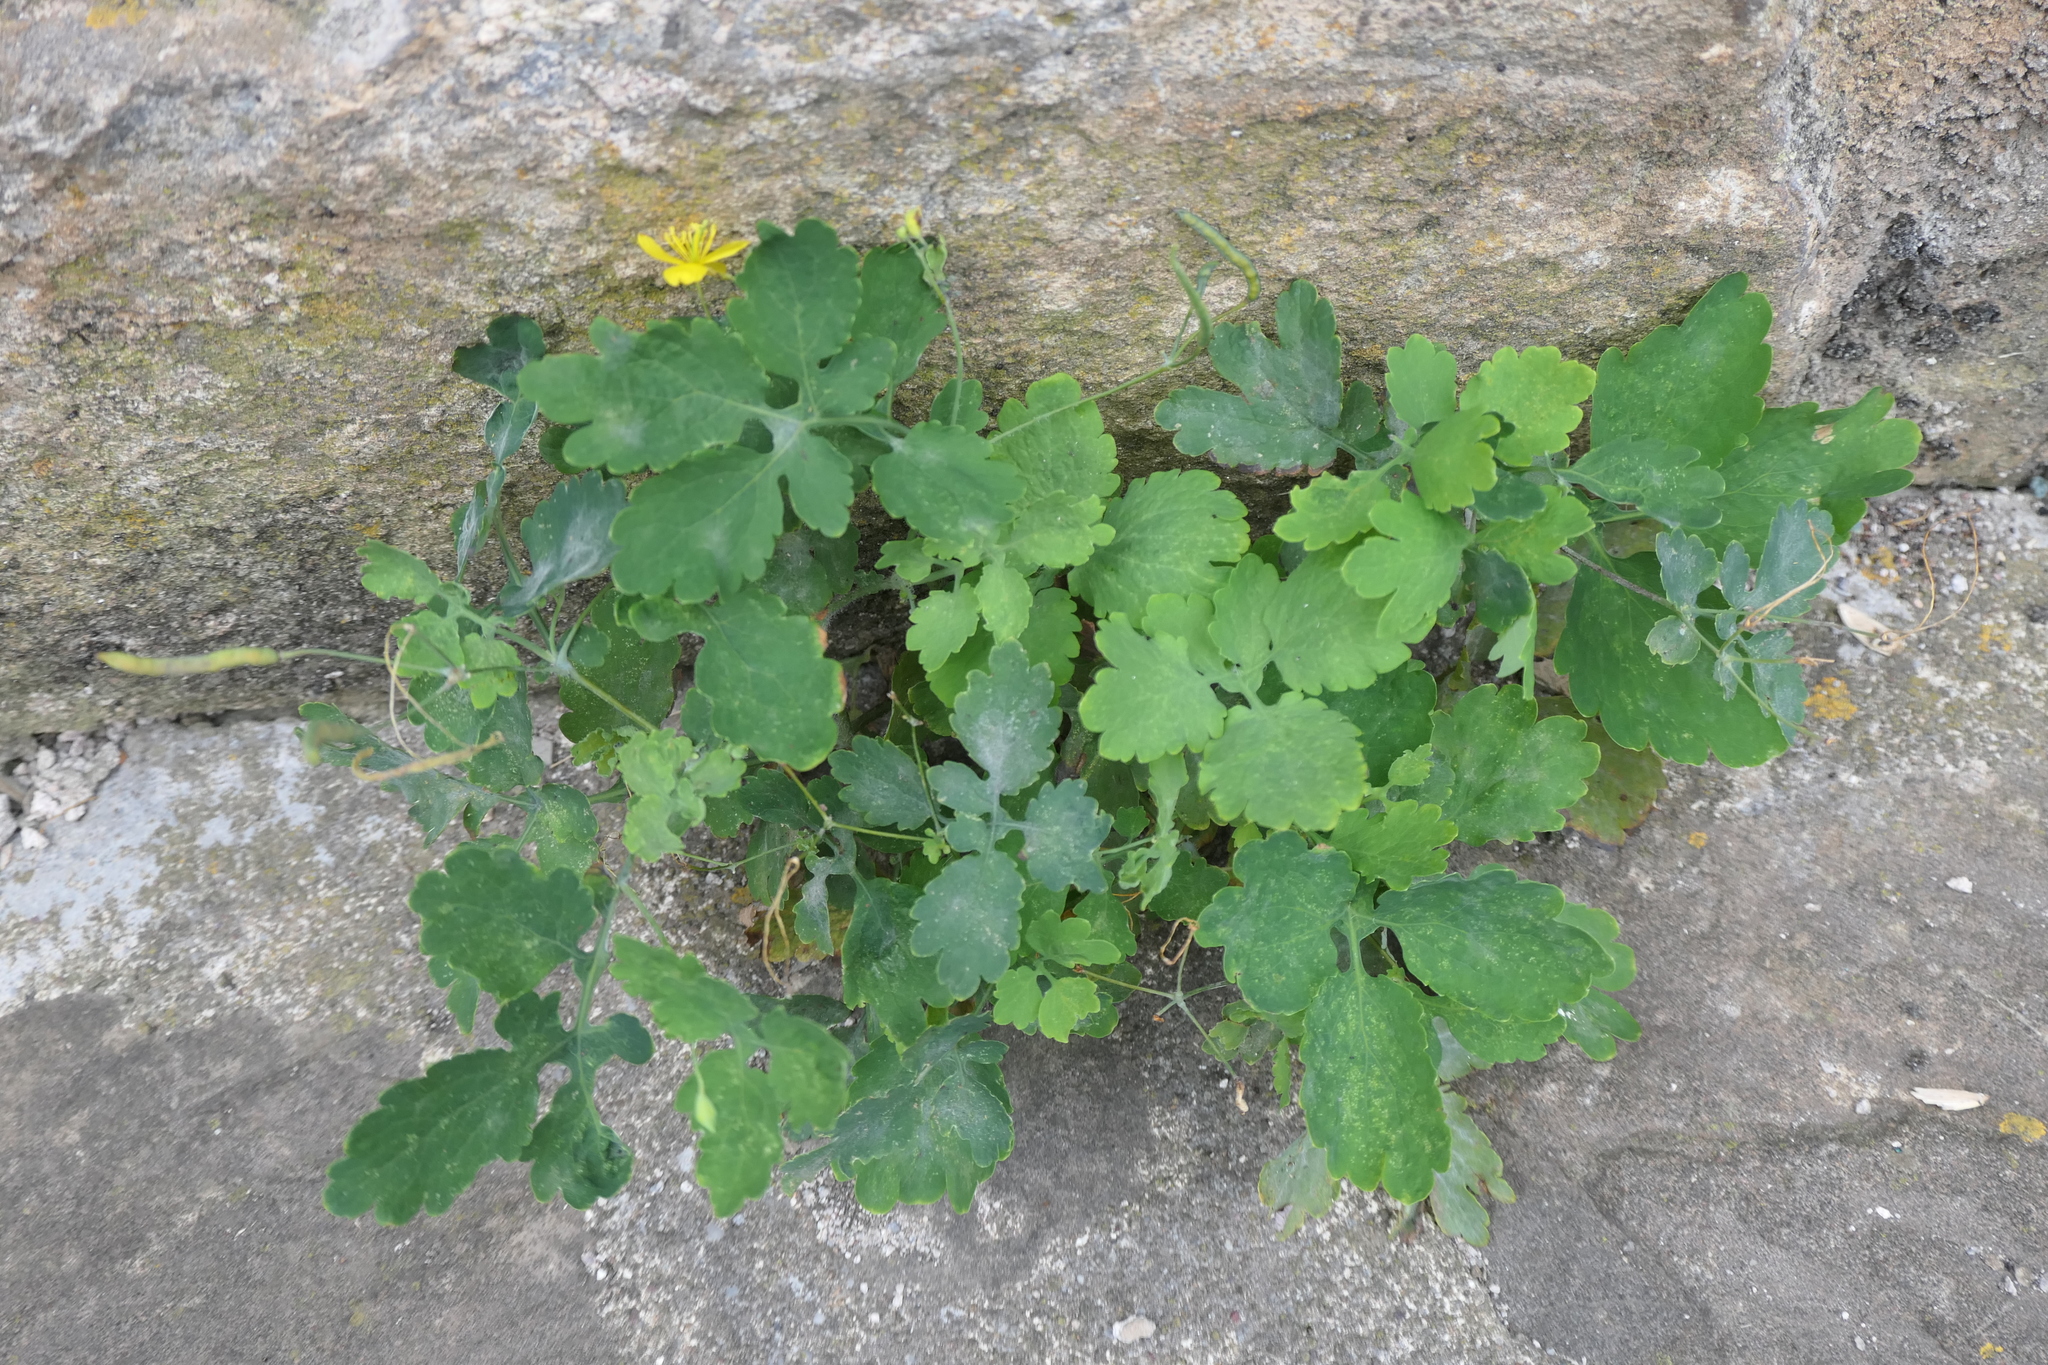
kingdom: Plantae
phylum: Tracheophyta
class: Magnoliopsida
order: Ranunculales
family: Papaveraceae
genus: Chelidonium
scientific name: Chelidonium majus
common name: Greater celandine
